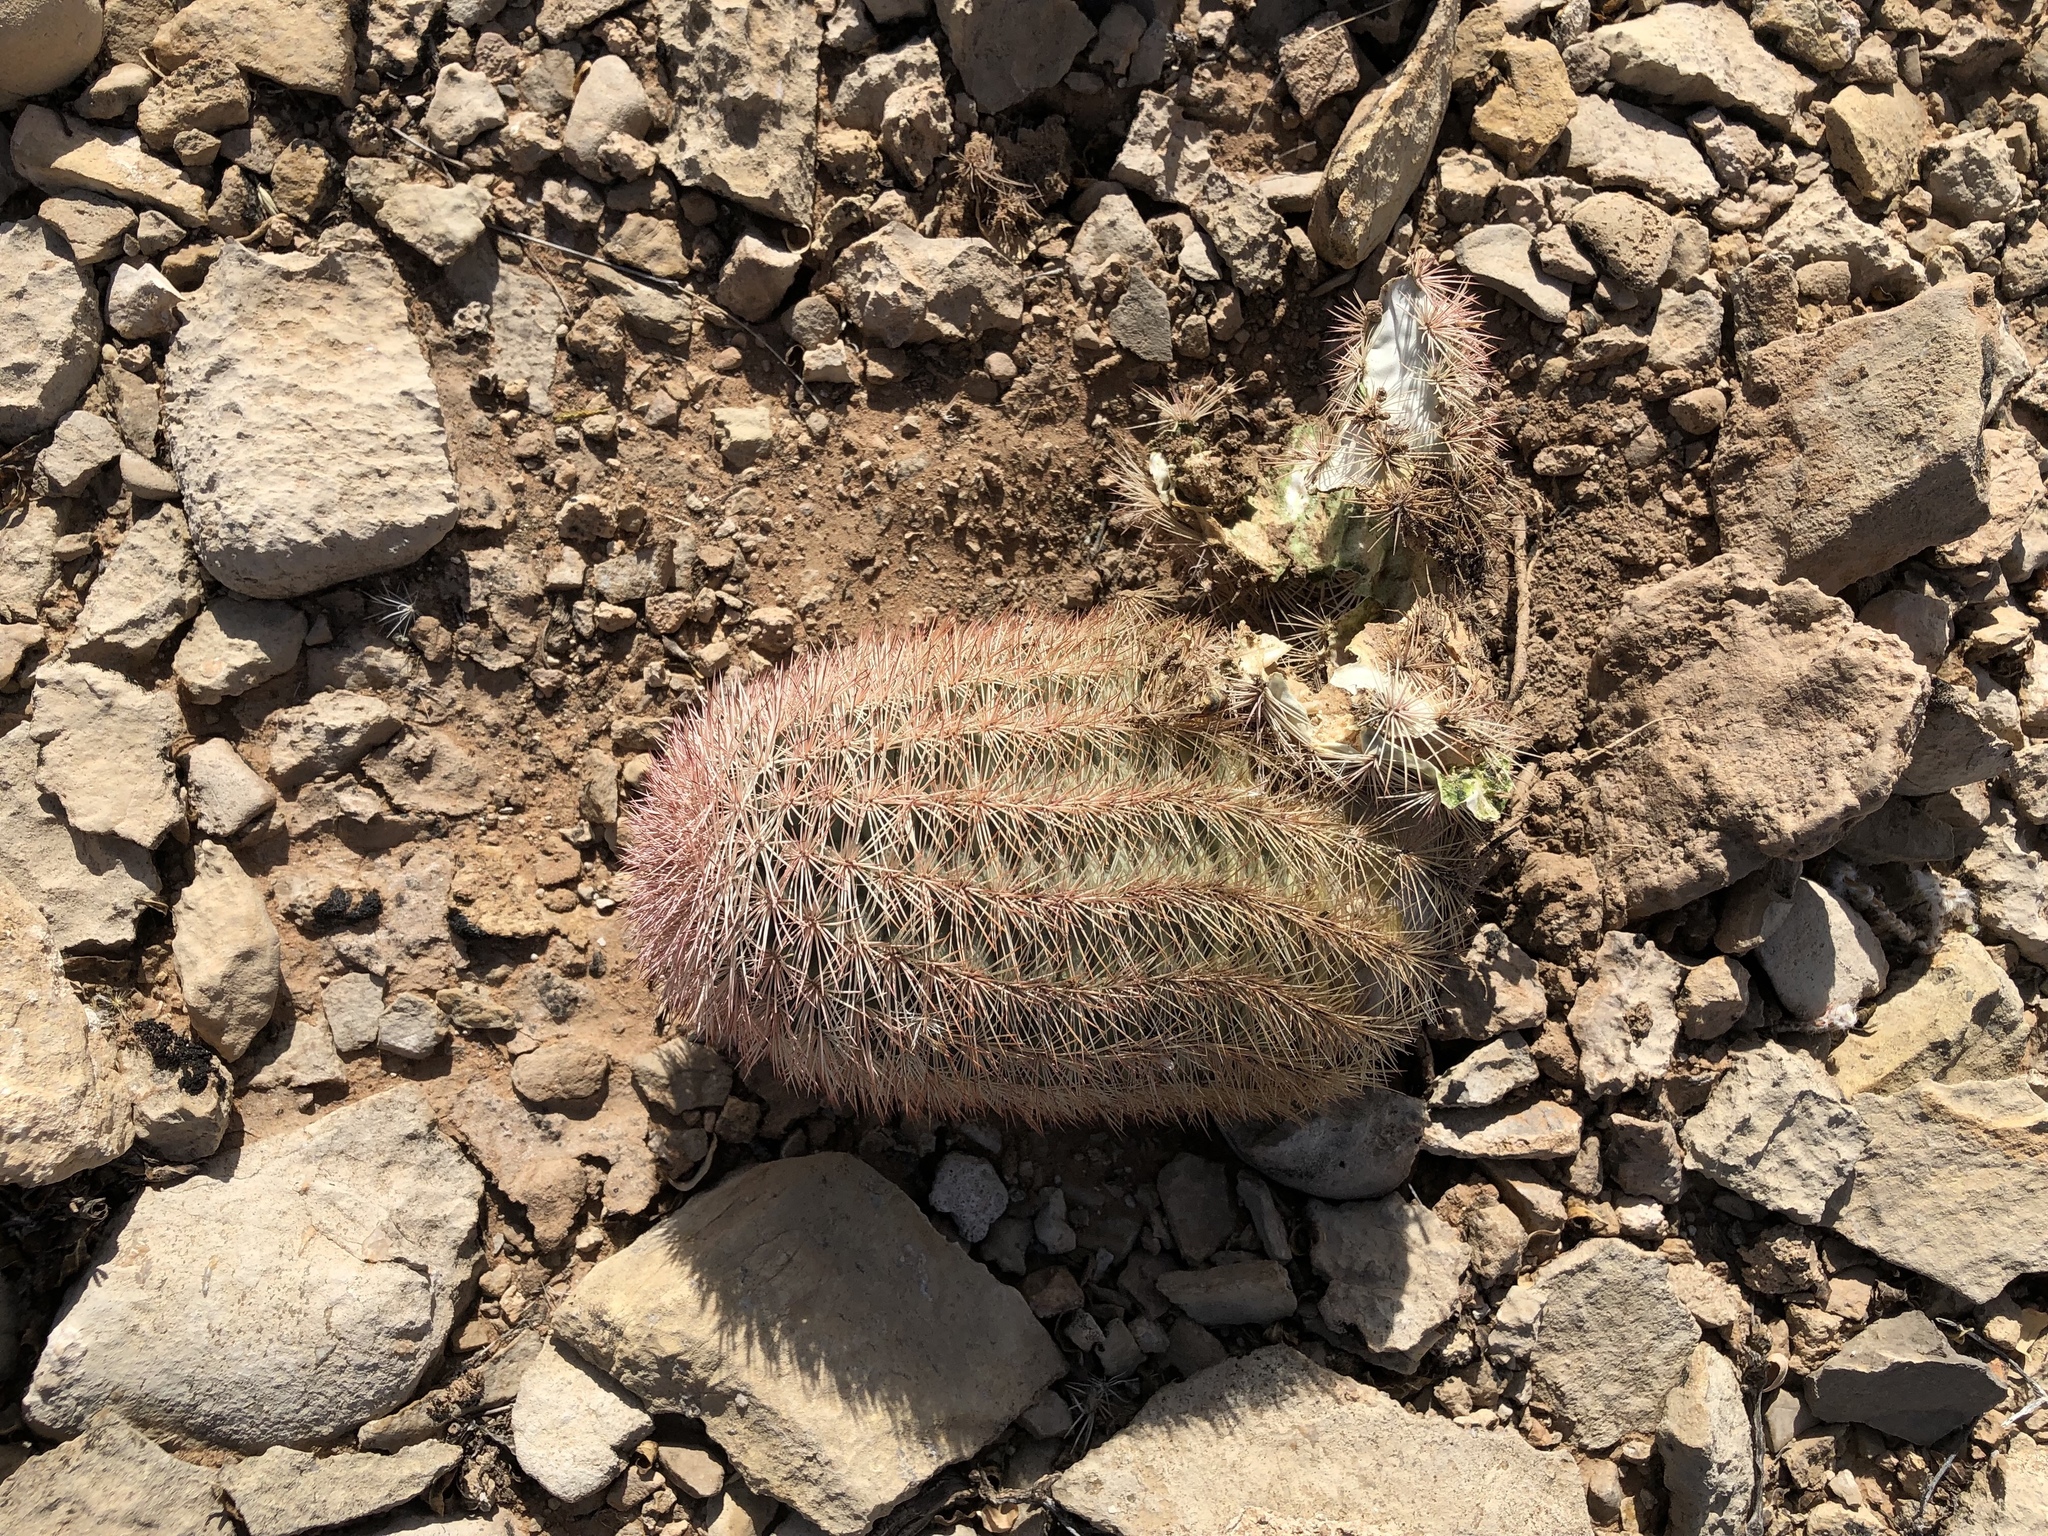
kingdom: Plantae
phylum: Tracheophyta
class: Magnoliopsida
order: Caryophyllales
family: Cactaceae
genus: Echinocereus
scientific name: Echinocereus dasyacanthus
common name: Spiny hedgehog cactus
